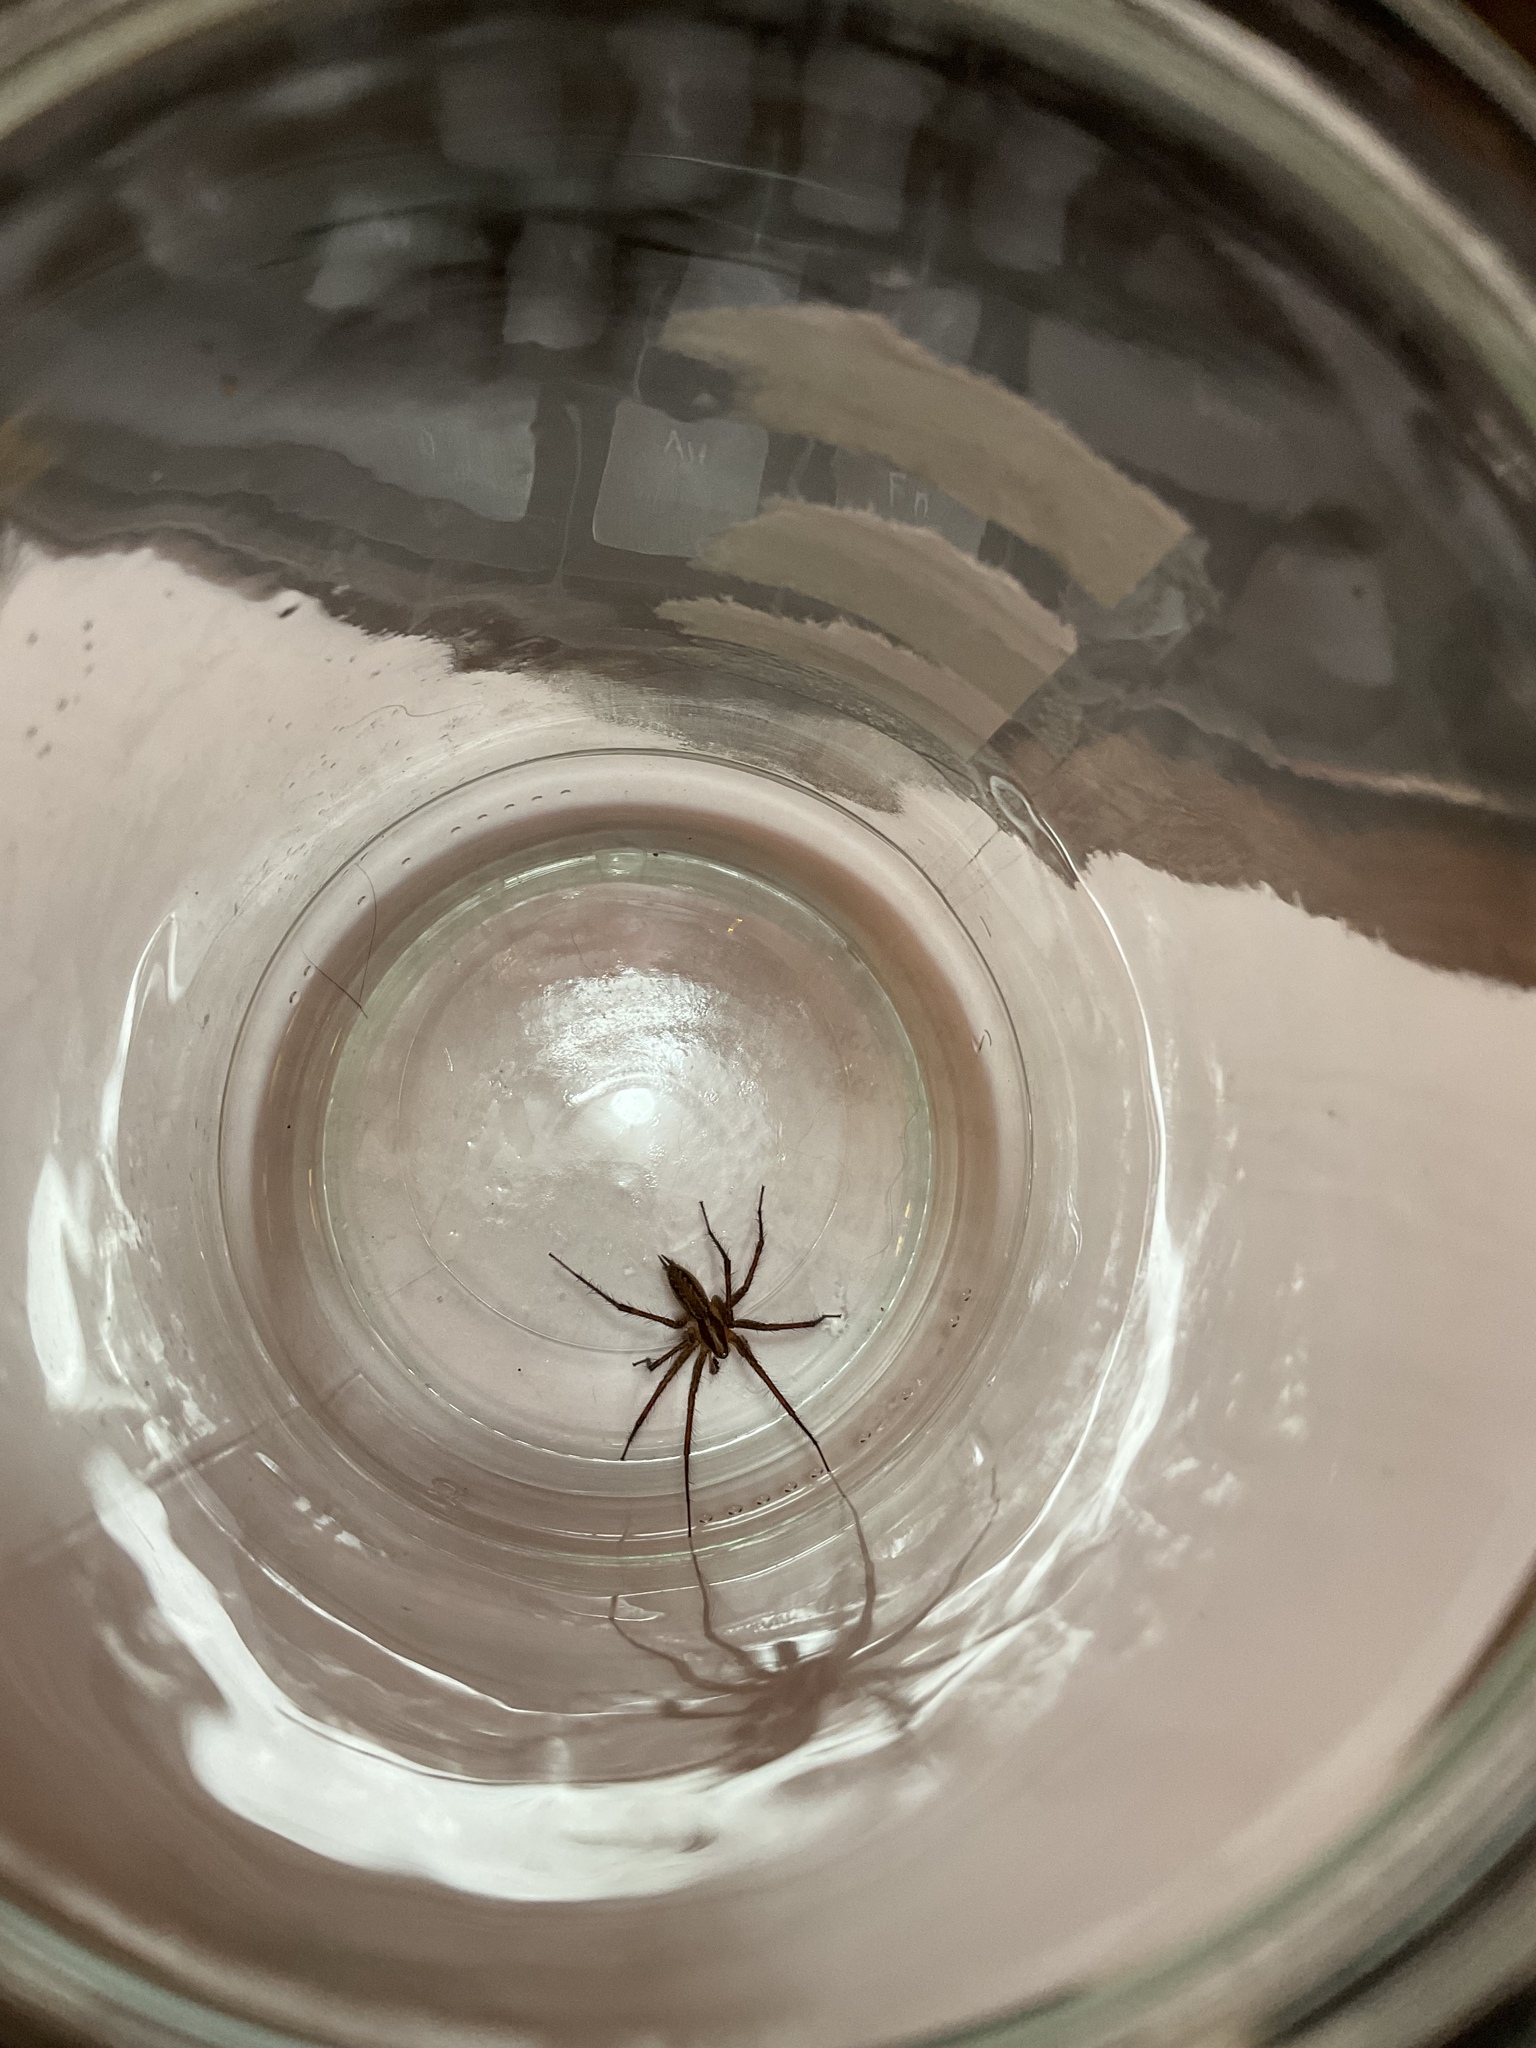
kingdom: Animalia
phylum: Arthropoda
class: Arachnida
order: Araneae
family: Agelenidae
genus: Agelenopsis
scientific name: Agelenopsis
